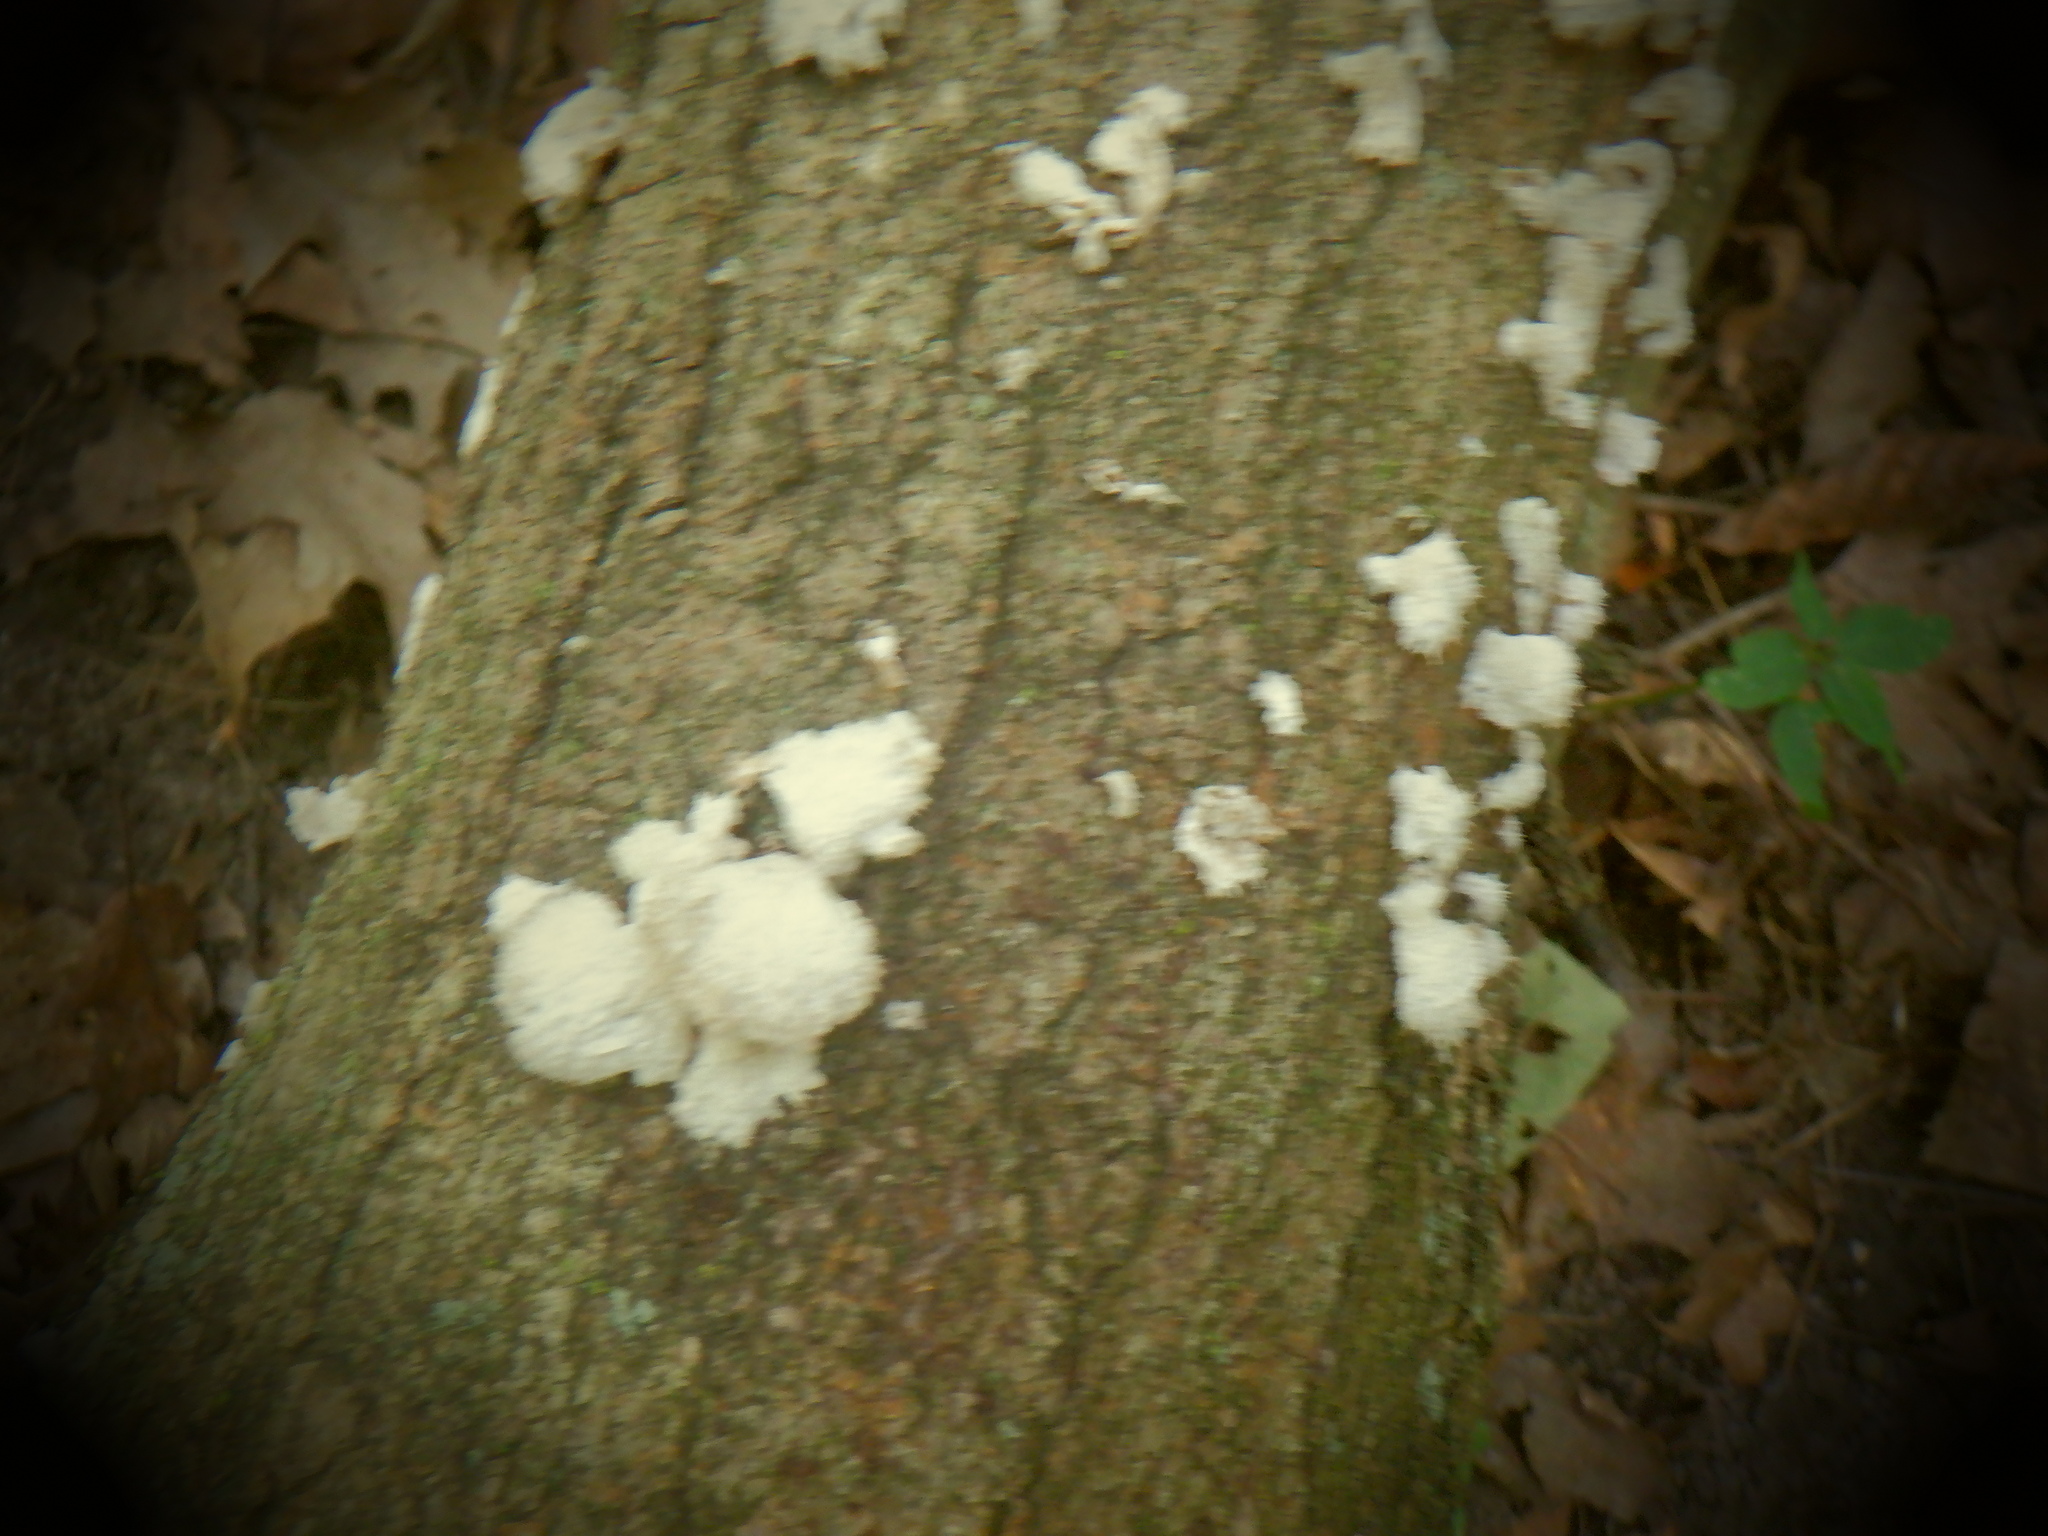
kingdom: Fungi
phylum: Basidiomycota
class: Agaricomycetes
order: Agaricales
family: Schizophyllaceae
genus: Schizophyllum
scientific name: Schizophyllum commune
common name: Common porecrust
